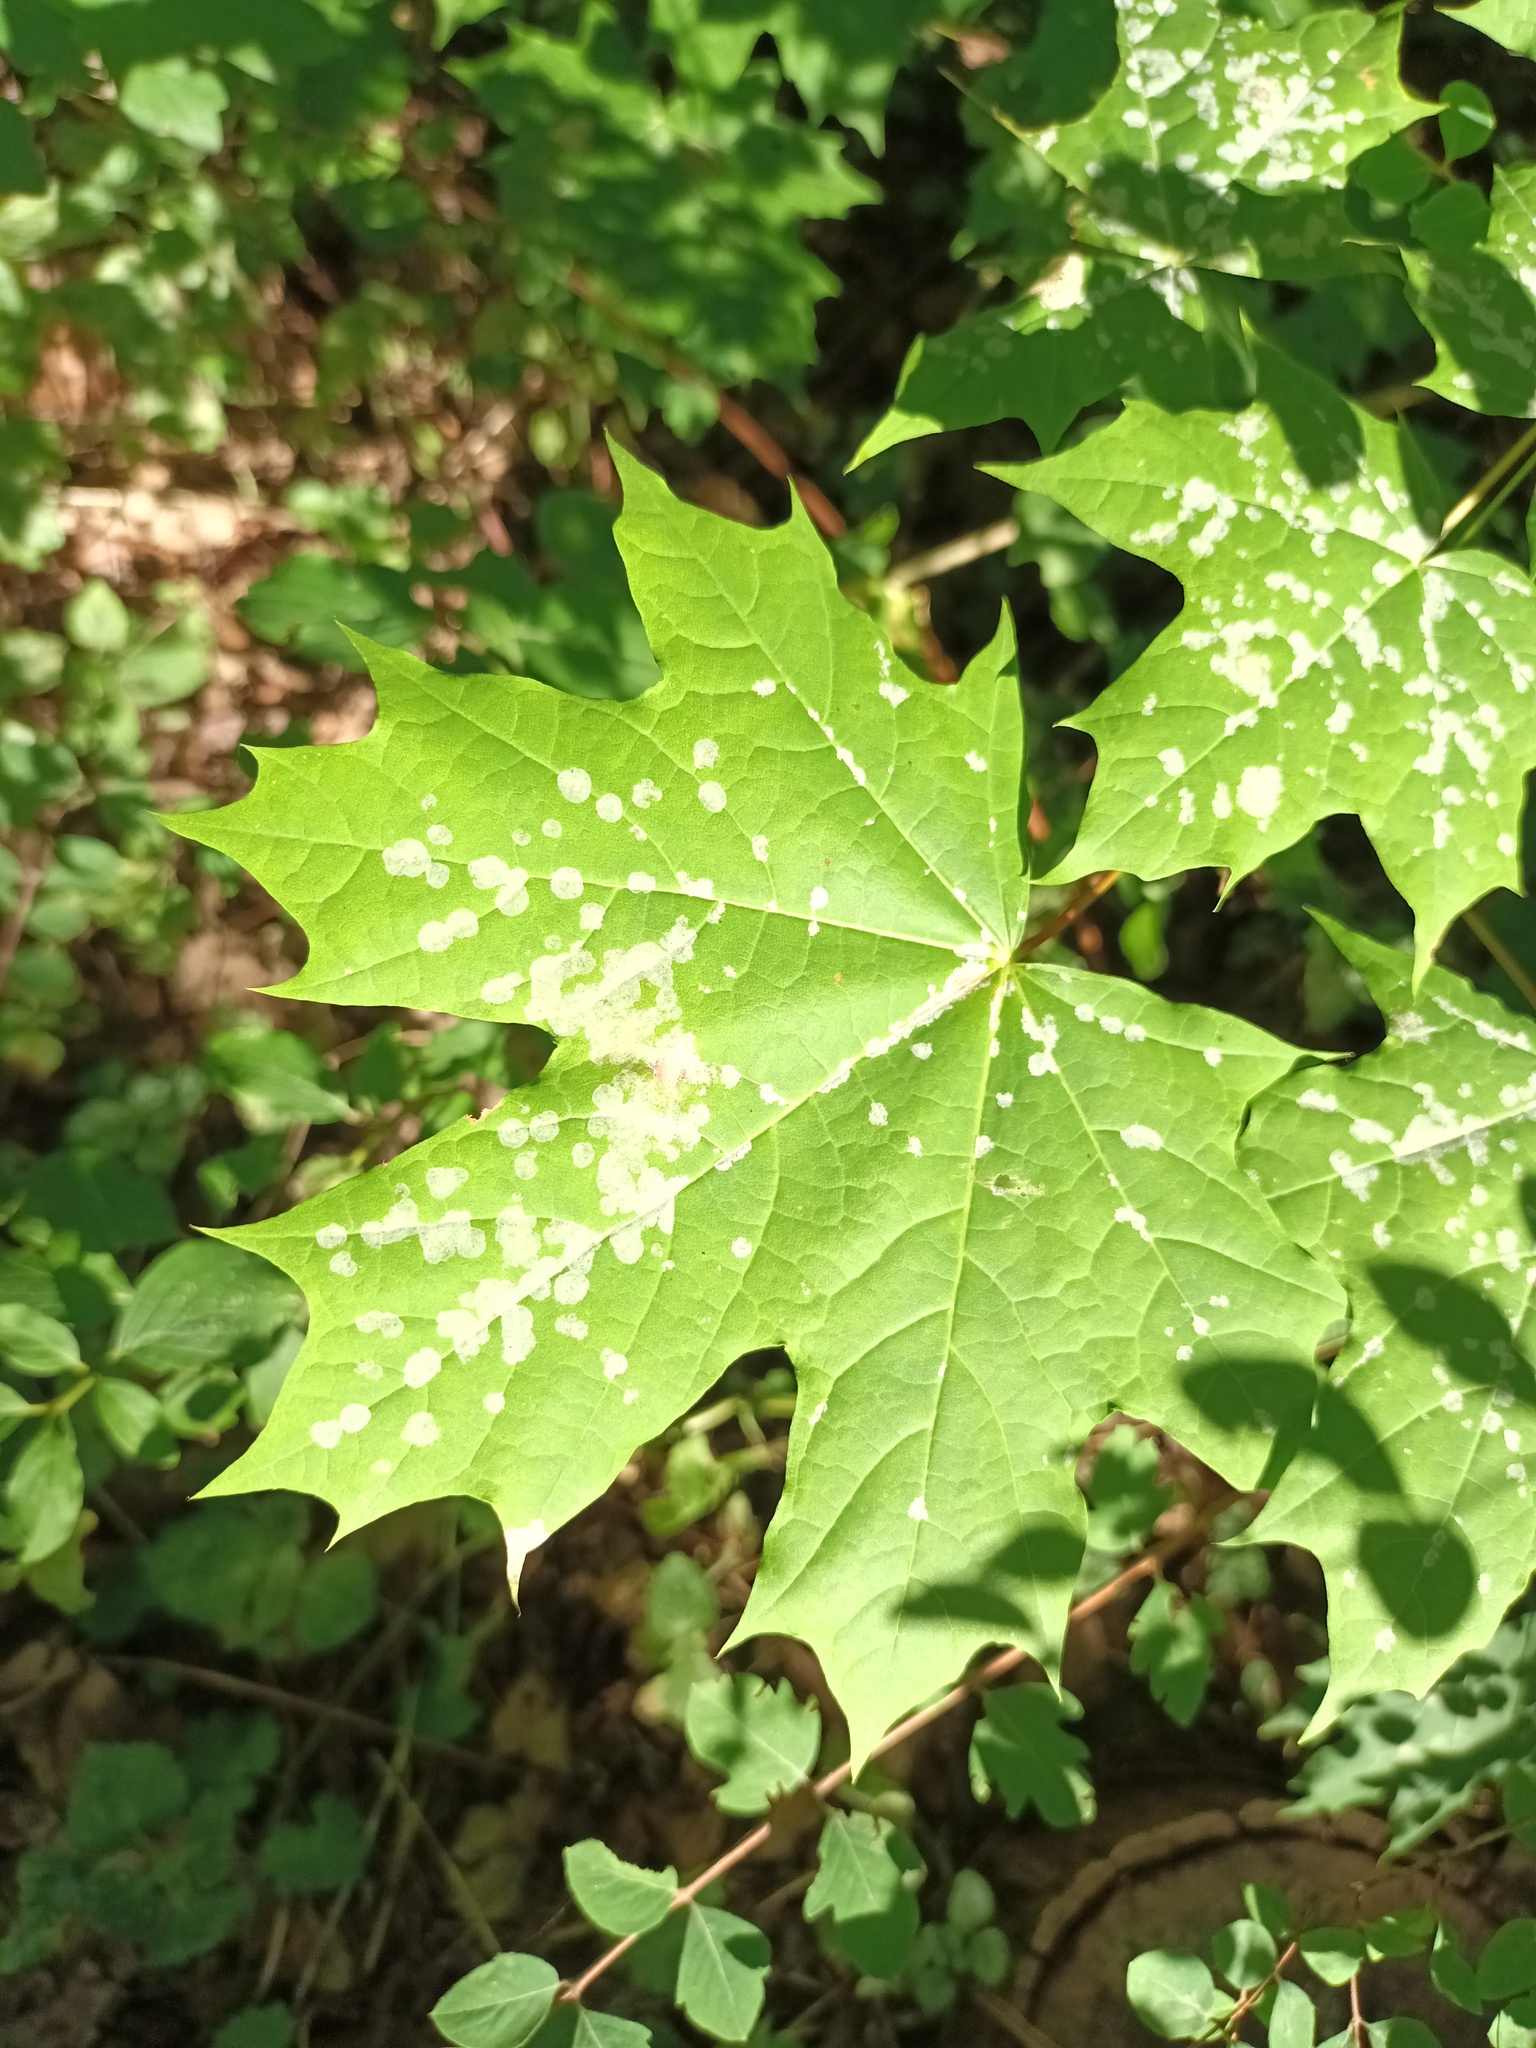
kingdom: Fungi
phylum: Ascomycota
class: Leotiomycetes
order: Helotiales
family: Erysiphaceae
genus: Sawadaea
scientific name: Sawadaea tulasnei
